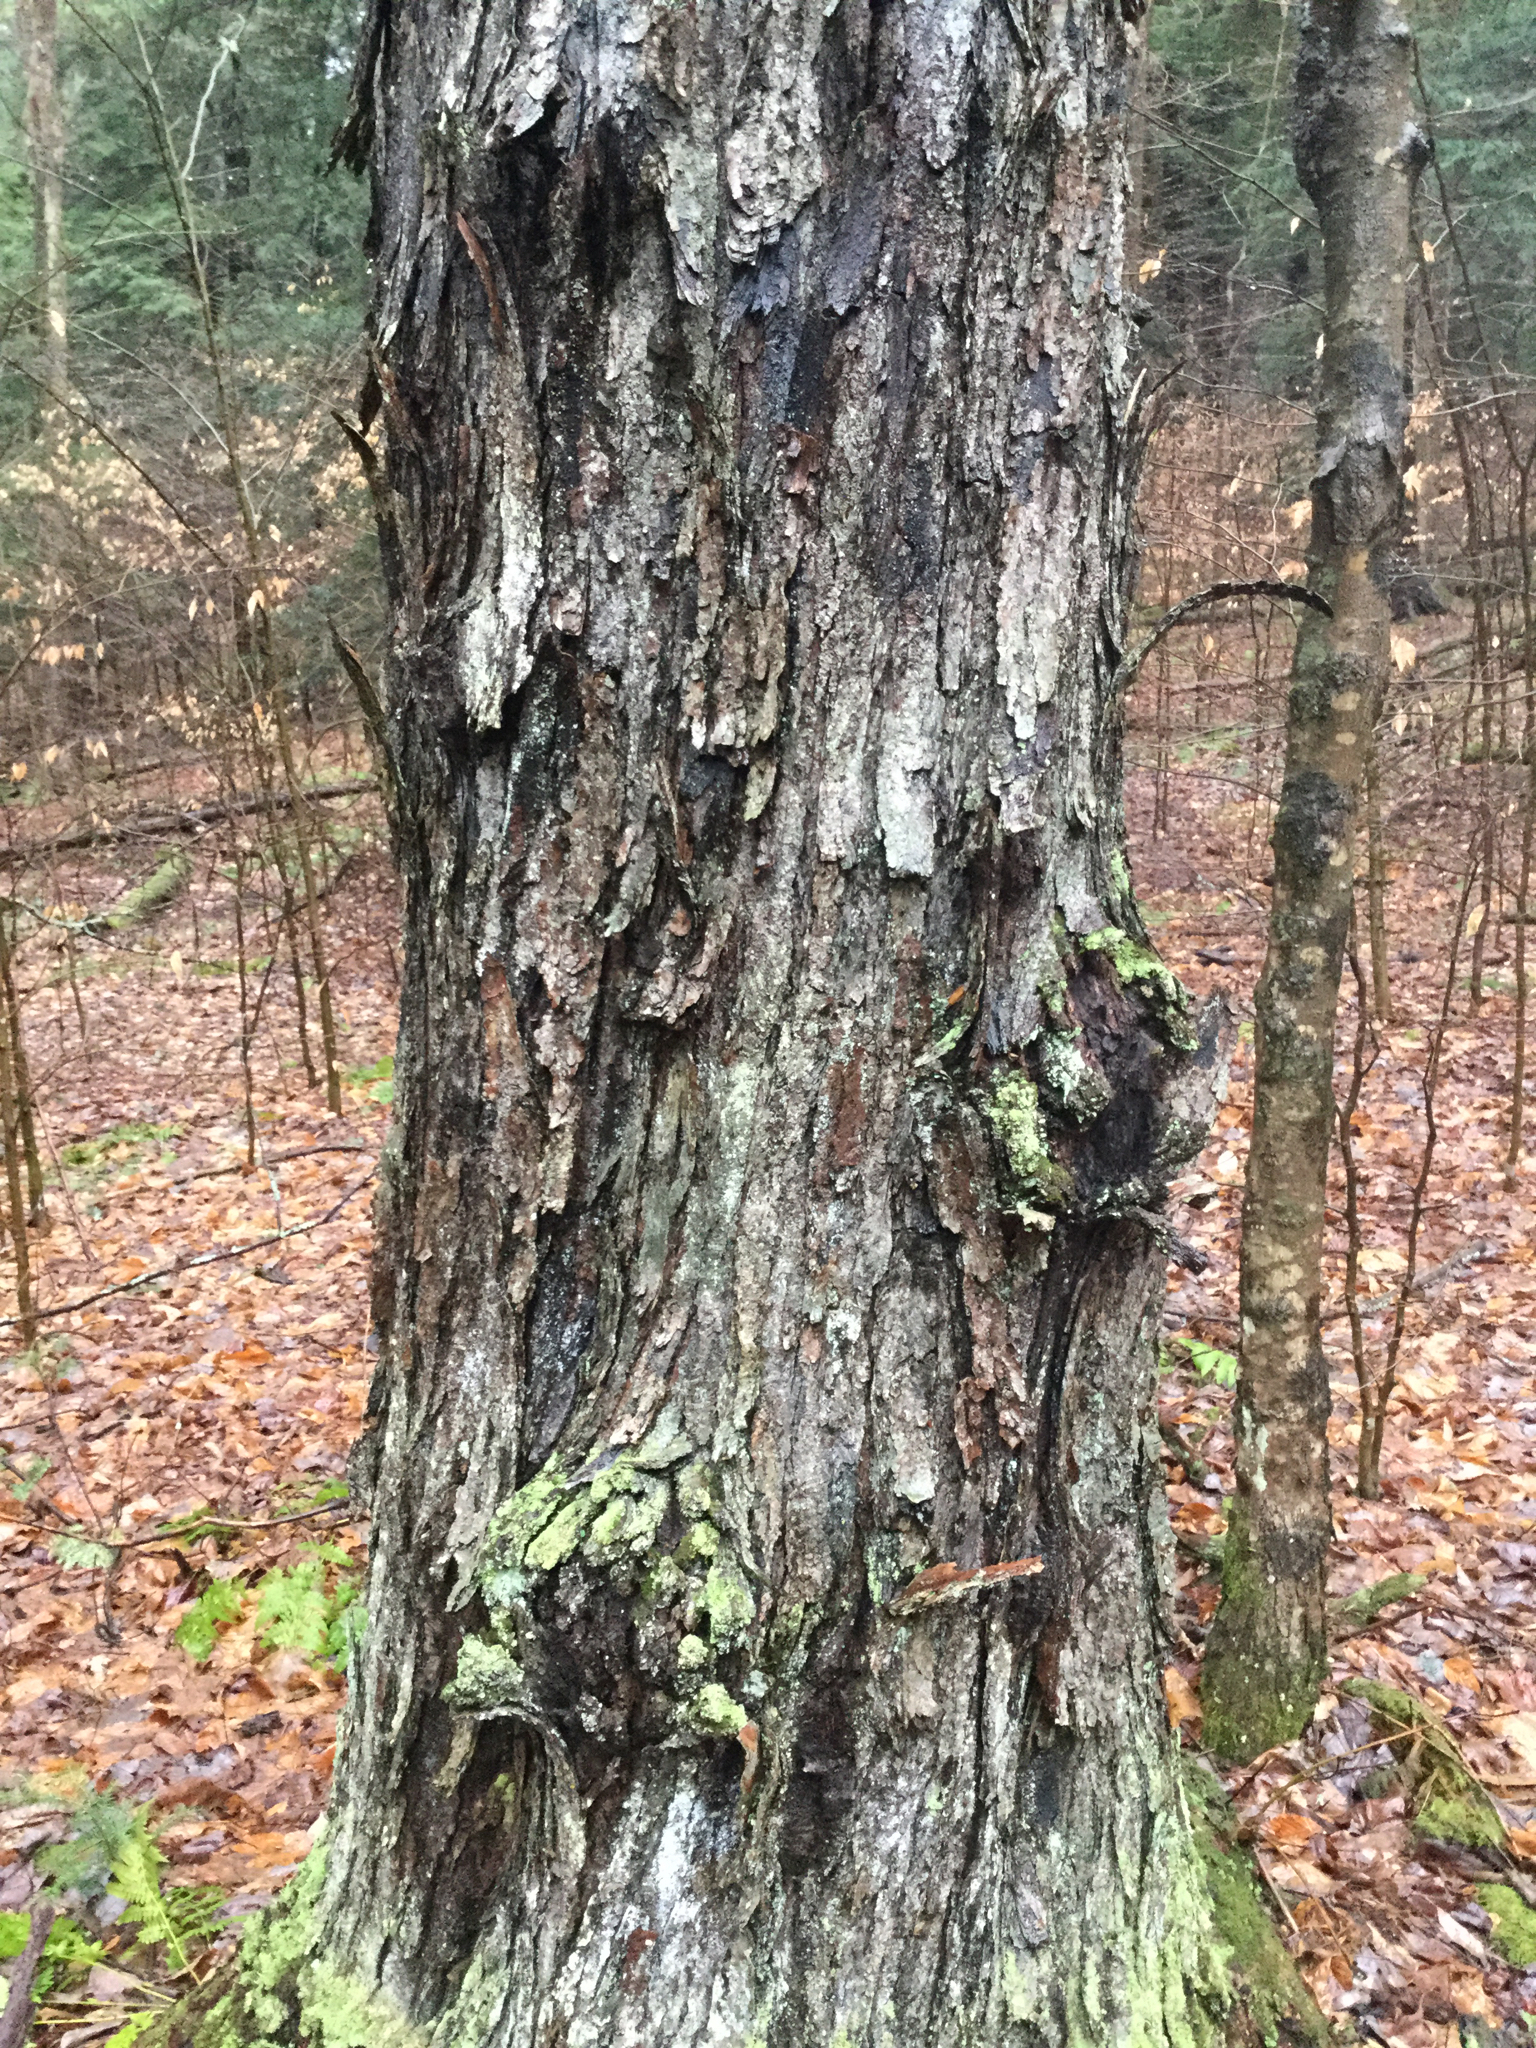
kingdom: Plantae
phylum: Tracheophyta
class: Magnoliopsida
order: Sapindales
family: Sapindaceae
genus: Acer
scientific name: Acer rubrum
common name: Red maple
